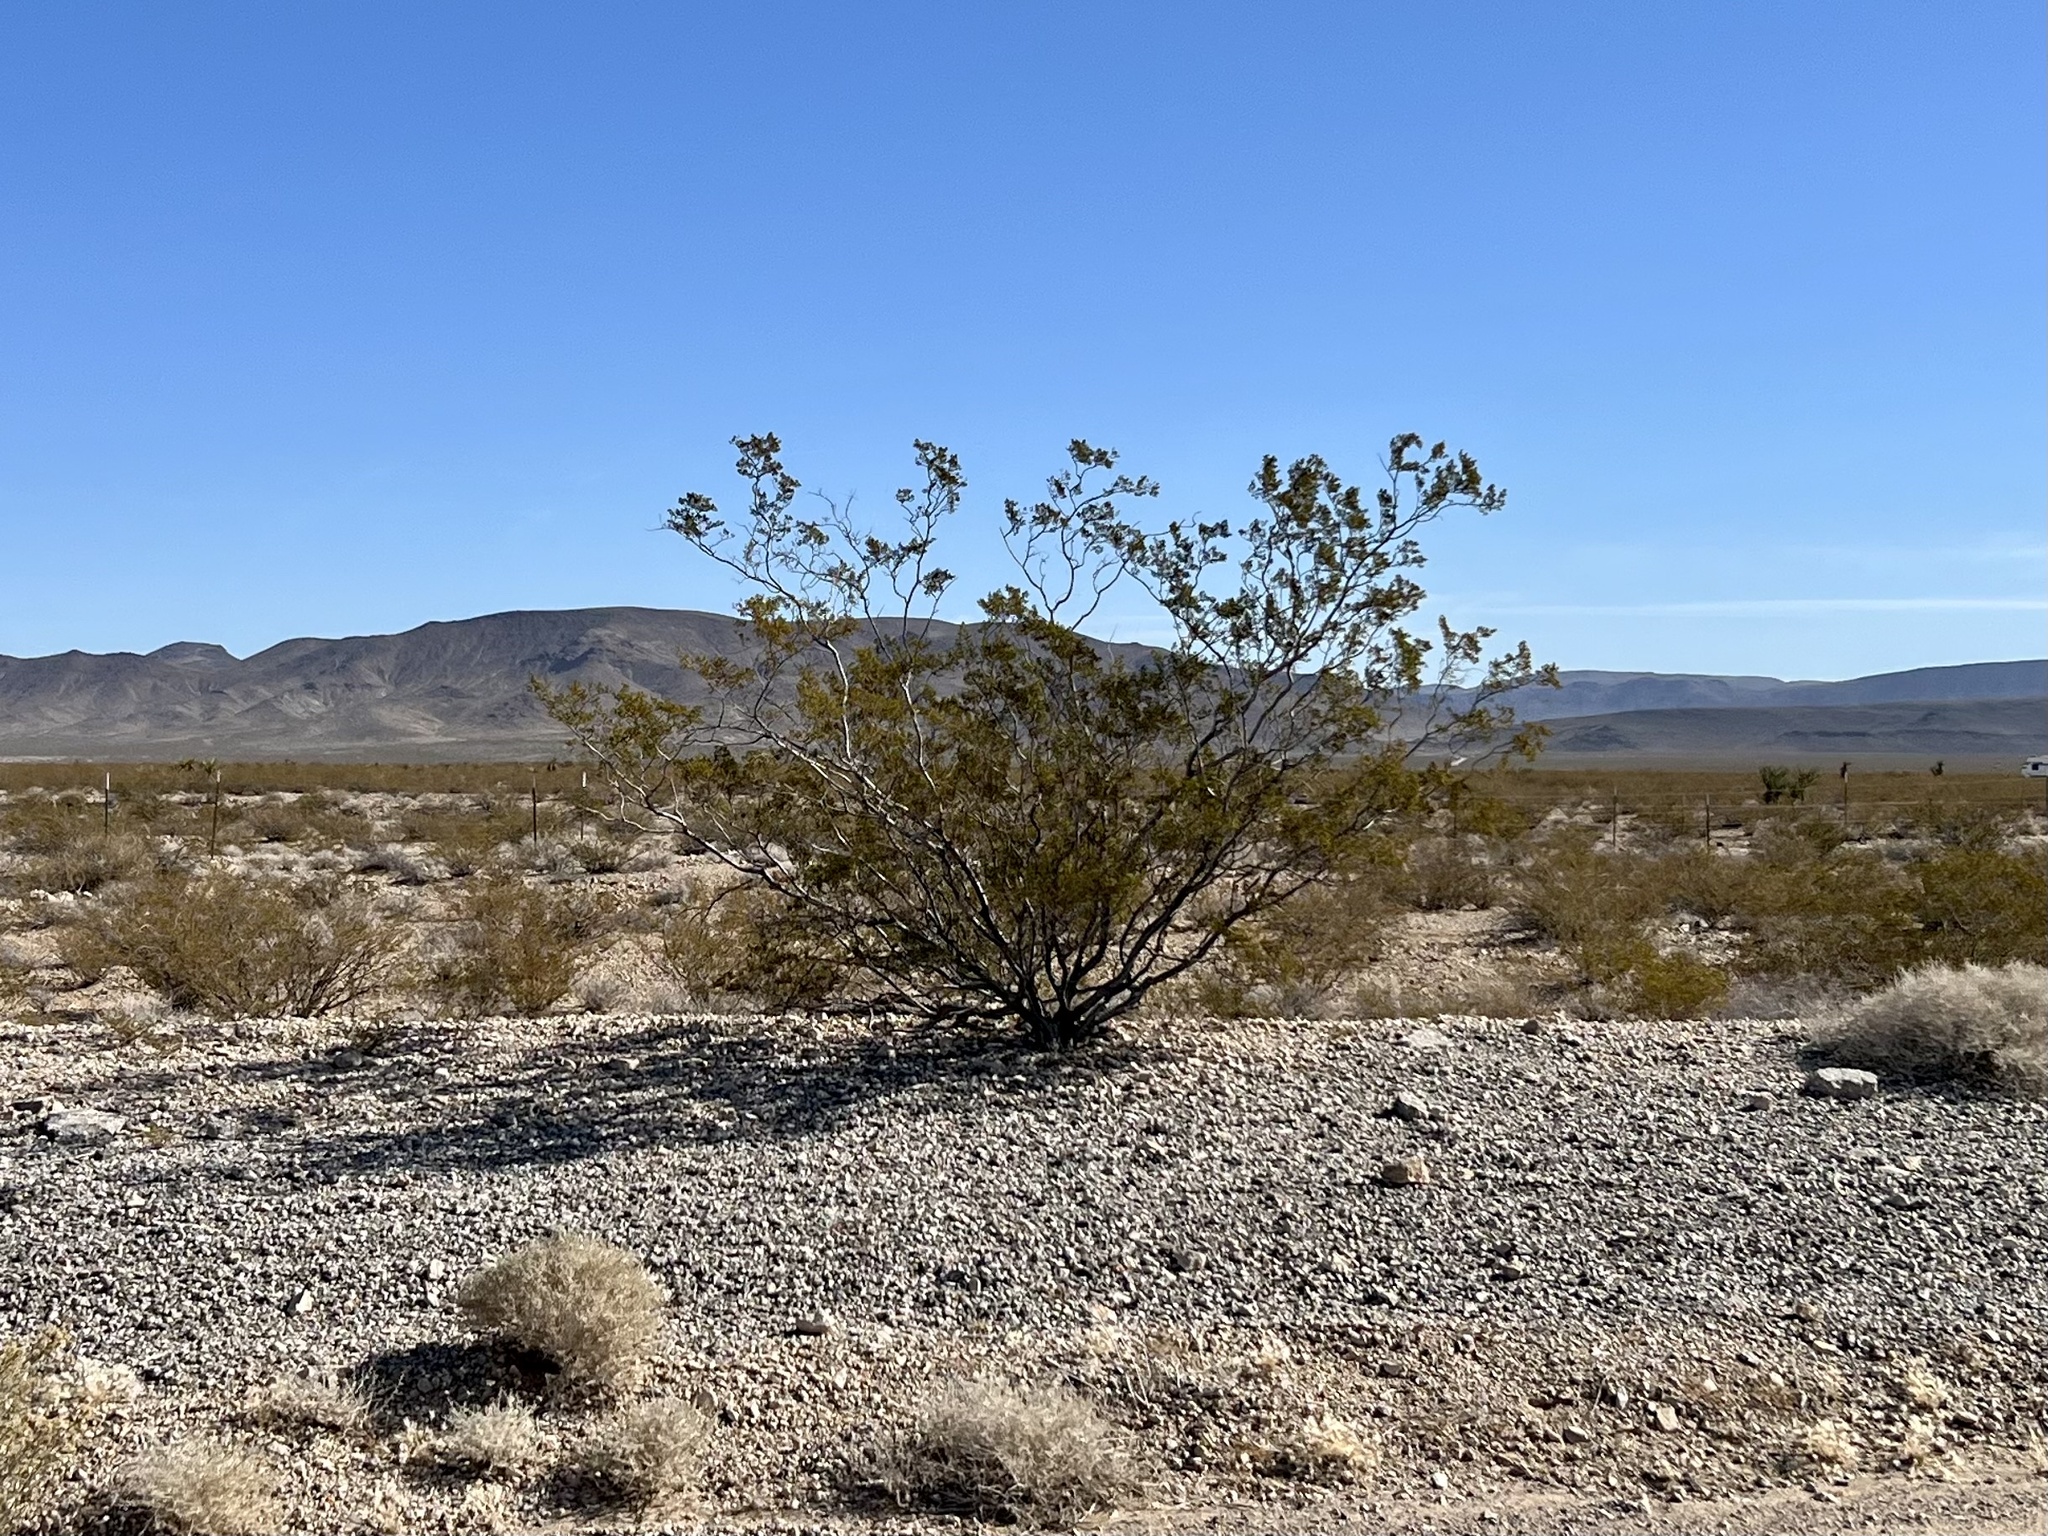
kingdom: Plantae
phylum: Tracheophyta
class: Magnoliopsida
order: Zygophyllales
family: Zygophyllaceae
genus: Larrea
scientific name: Larrea tridentata
